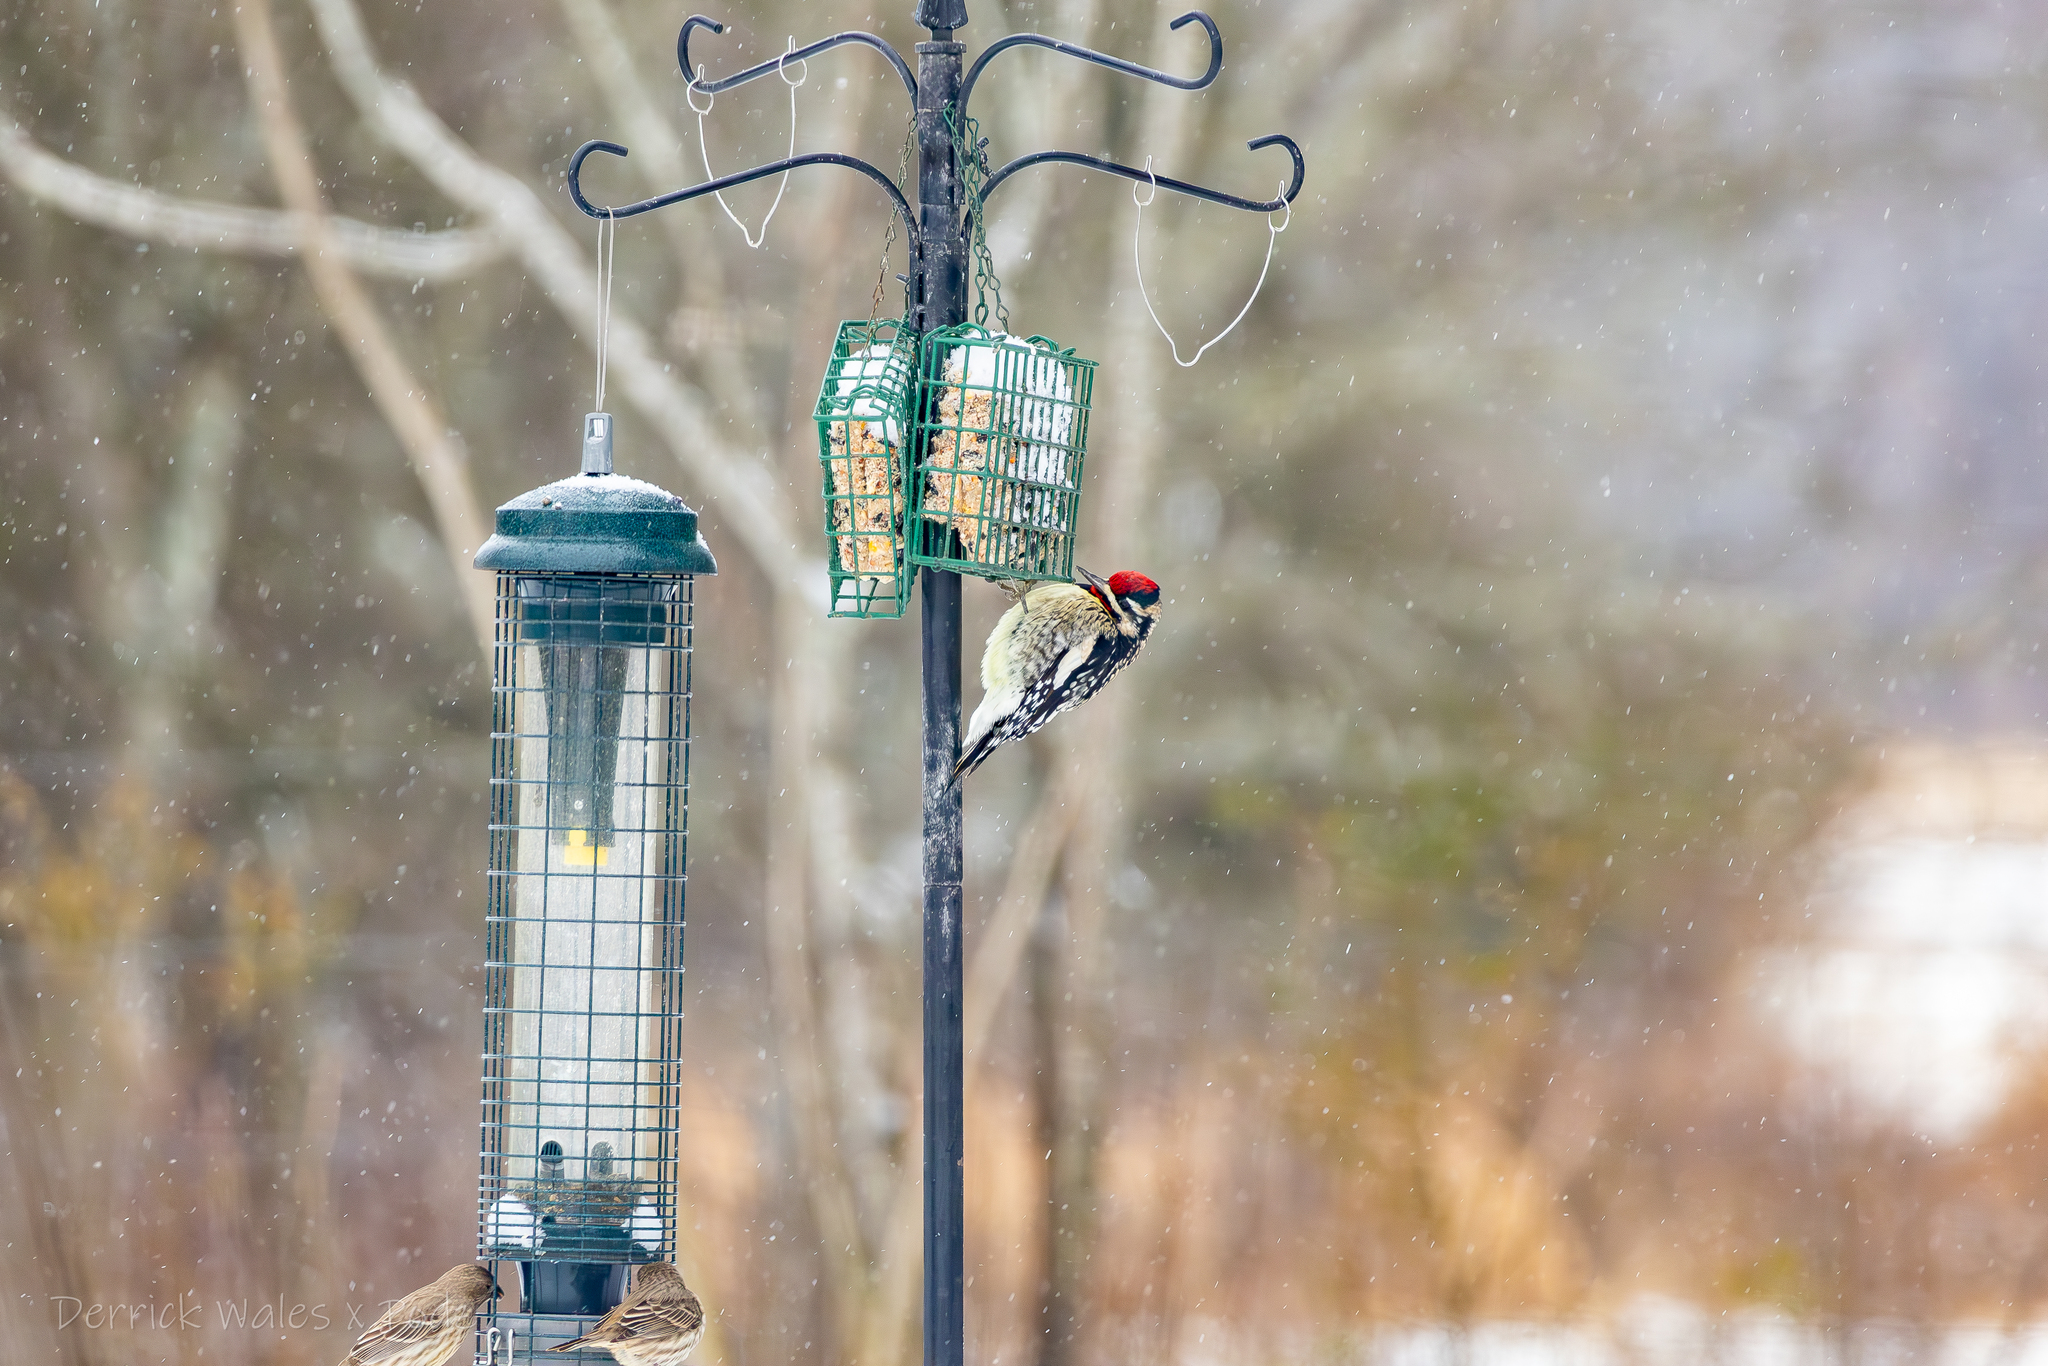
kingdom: Animalia
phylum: Chordata
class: Aves
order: Piciformes
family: Picidae
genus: Sphyrapicus
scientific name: Sphyrapicus varius
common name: Yellow-bellied sapsucker
